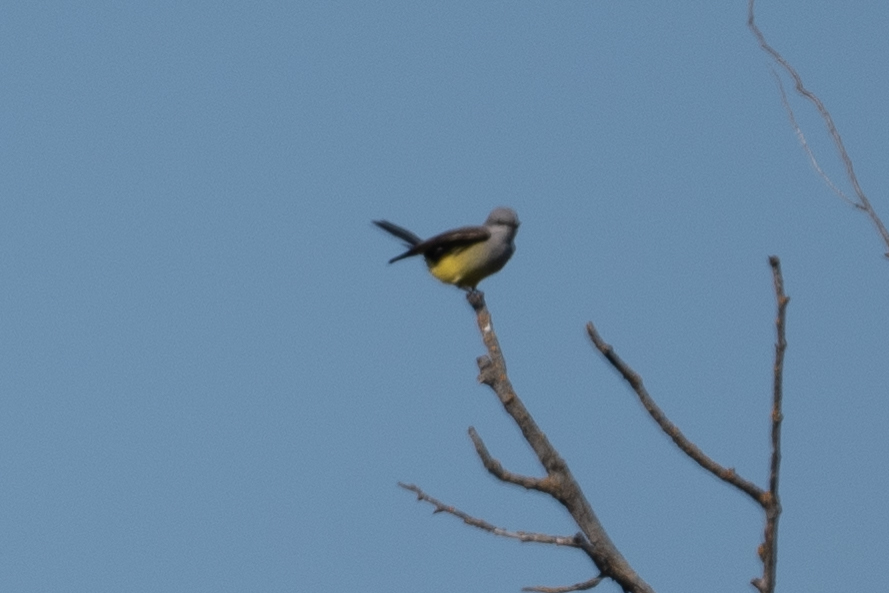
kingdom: Animalia
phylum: Chordata
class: Aves
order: Passeriformes
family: Tyrannidae
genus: Tyrannus
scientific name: Tyrannus verticalis
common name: Western kingbird
